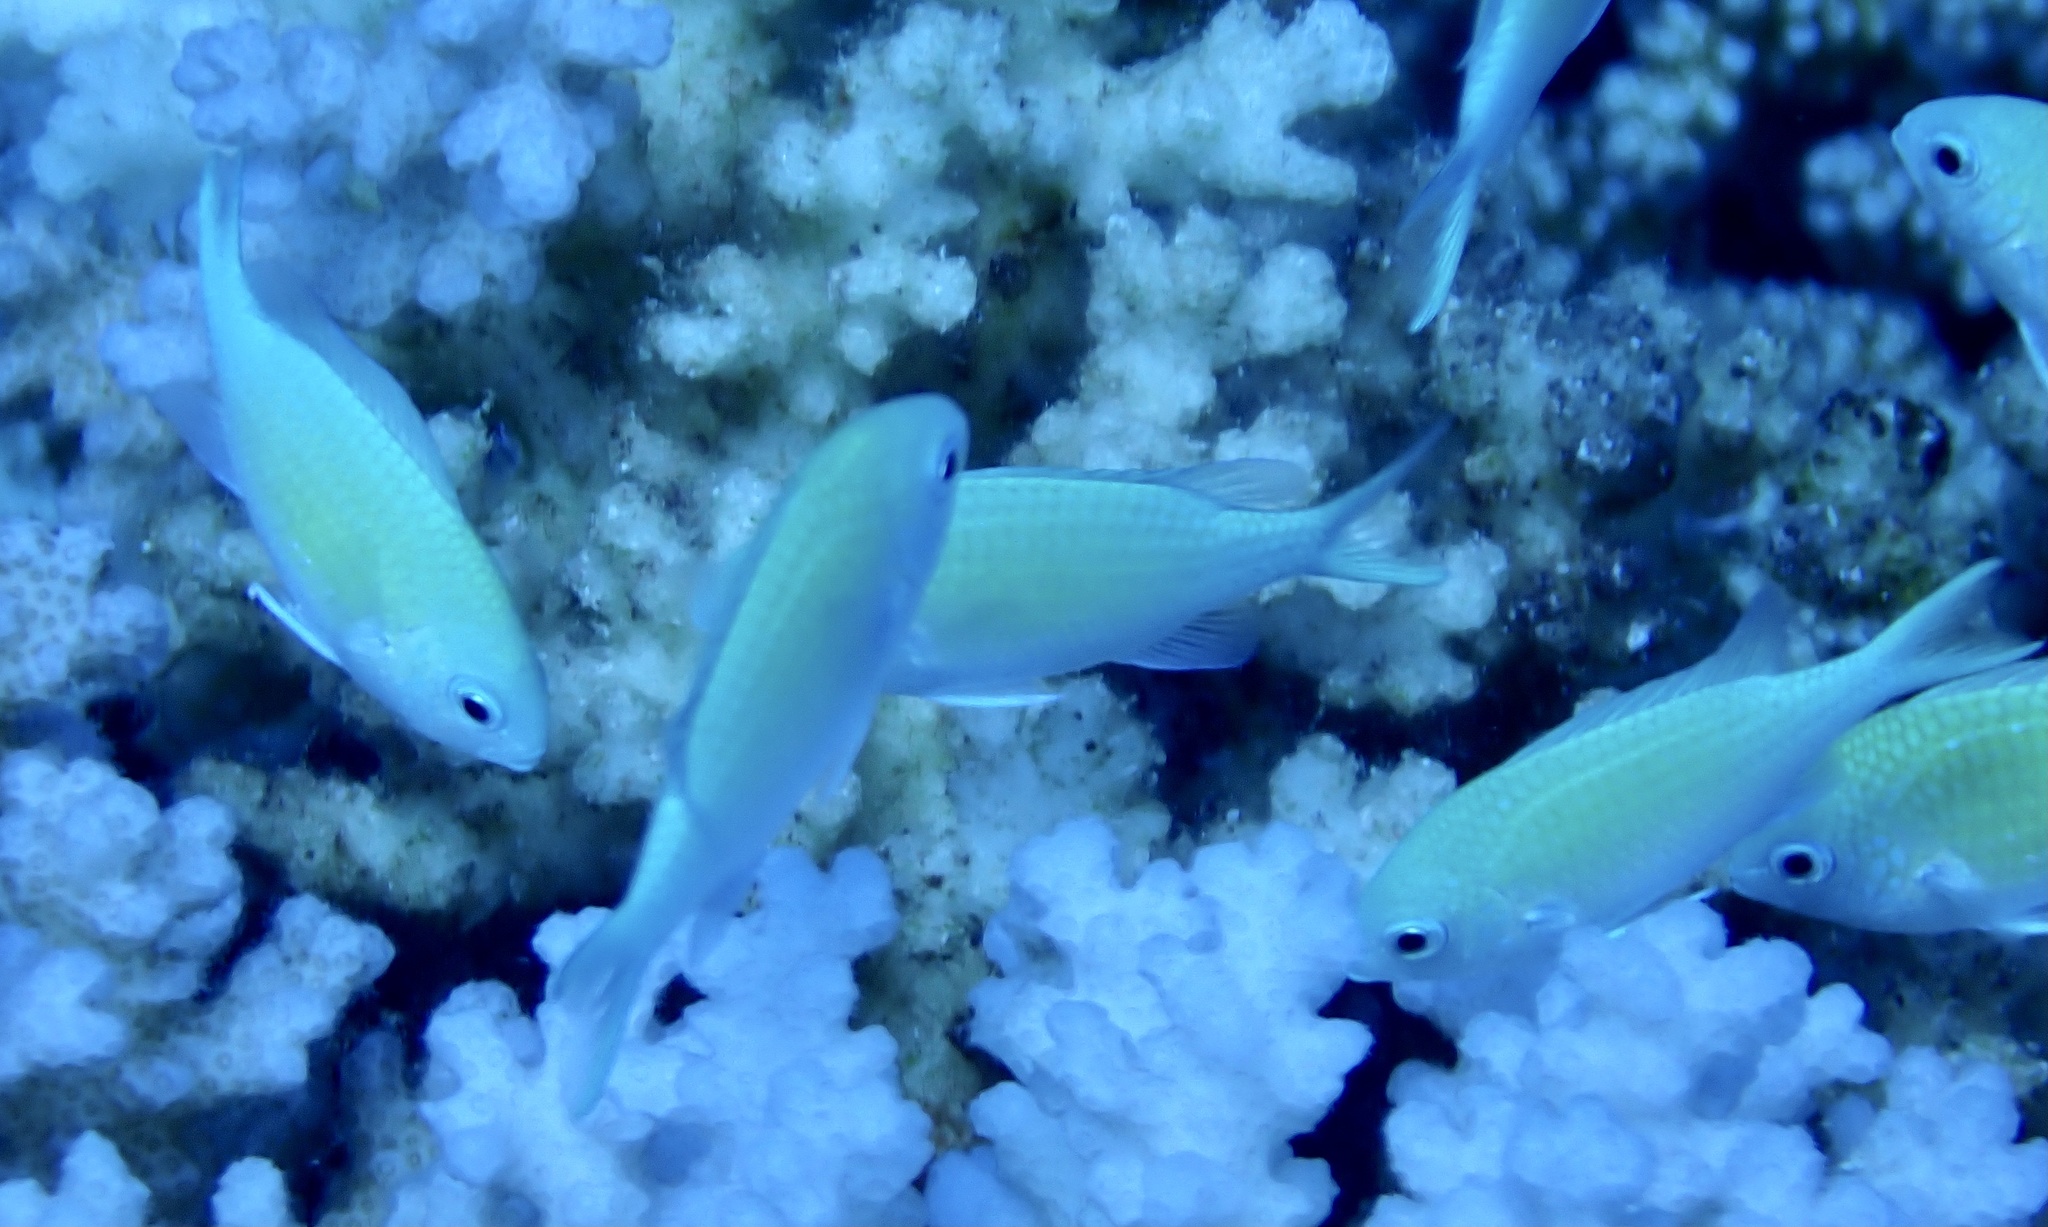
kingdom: Animalia
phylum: Chordata
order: Perciformes
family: Pomacentridae
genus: Chromis
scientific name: Chromis viridis
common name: Blue-green chromis
